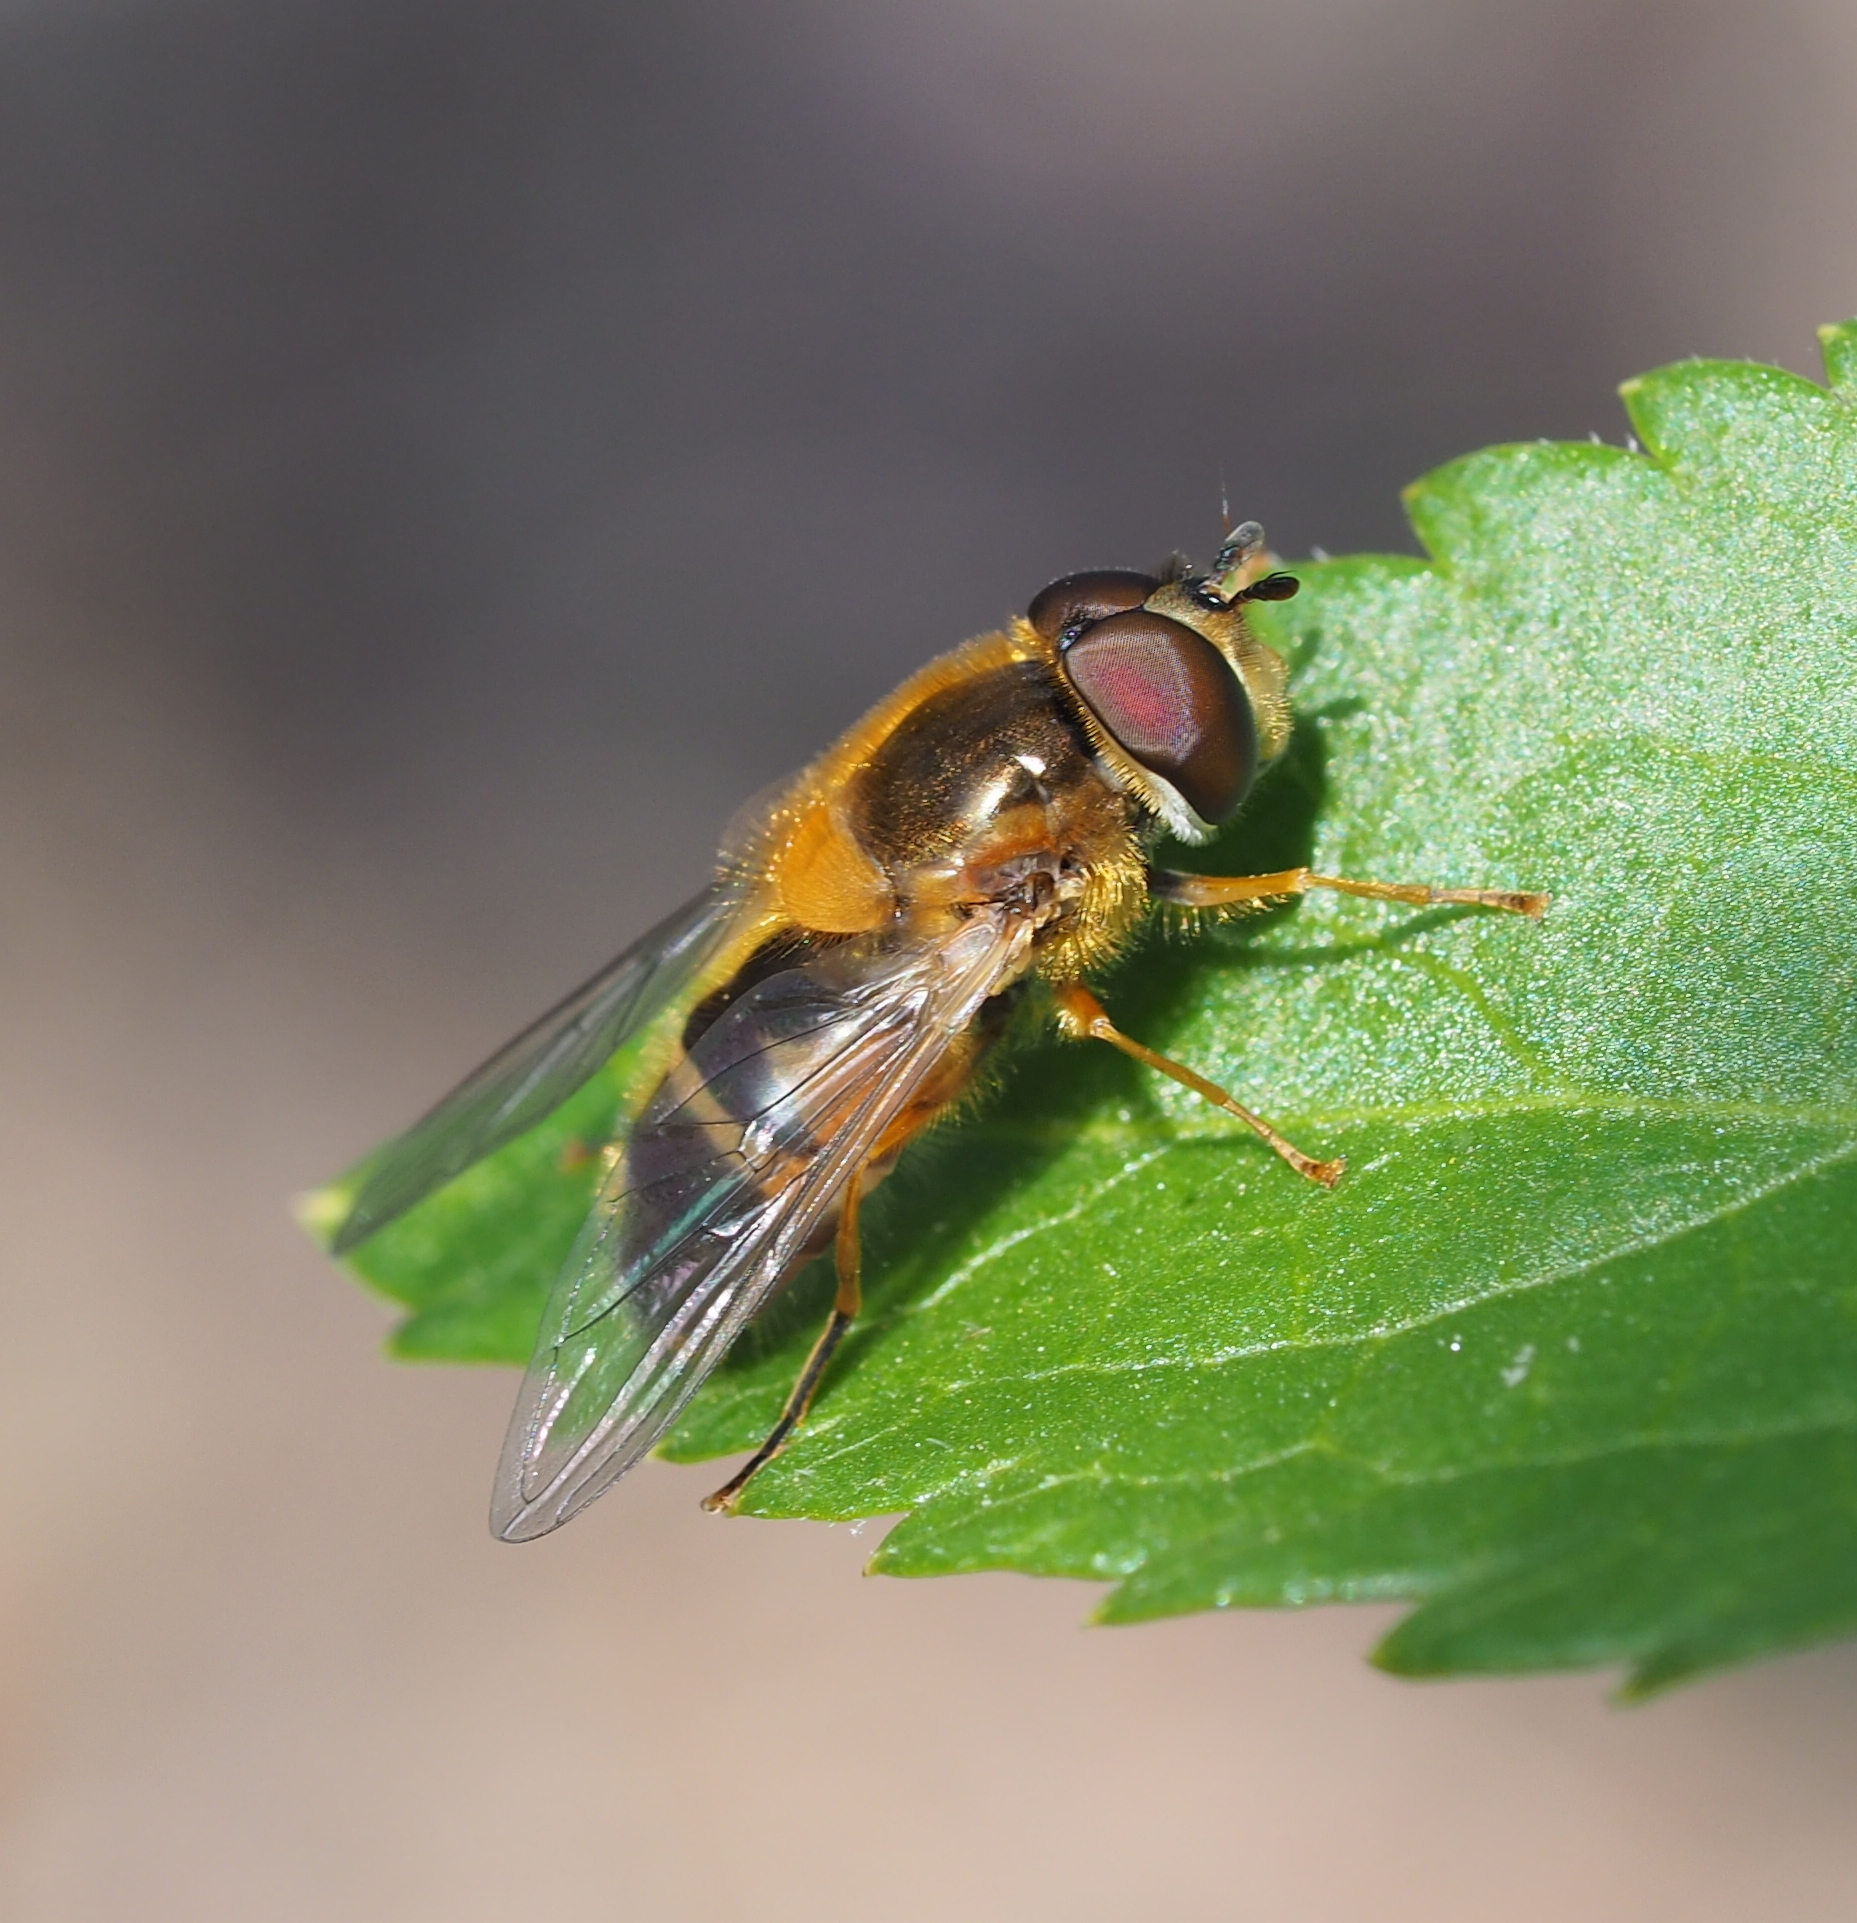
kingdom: Animalia
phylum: Arthropoda
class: Insecta
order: Diptera
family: Syrphidae
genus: Epistrophe
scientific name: Epistrophe eligans
